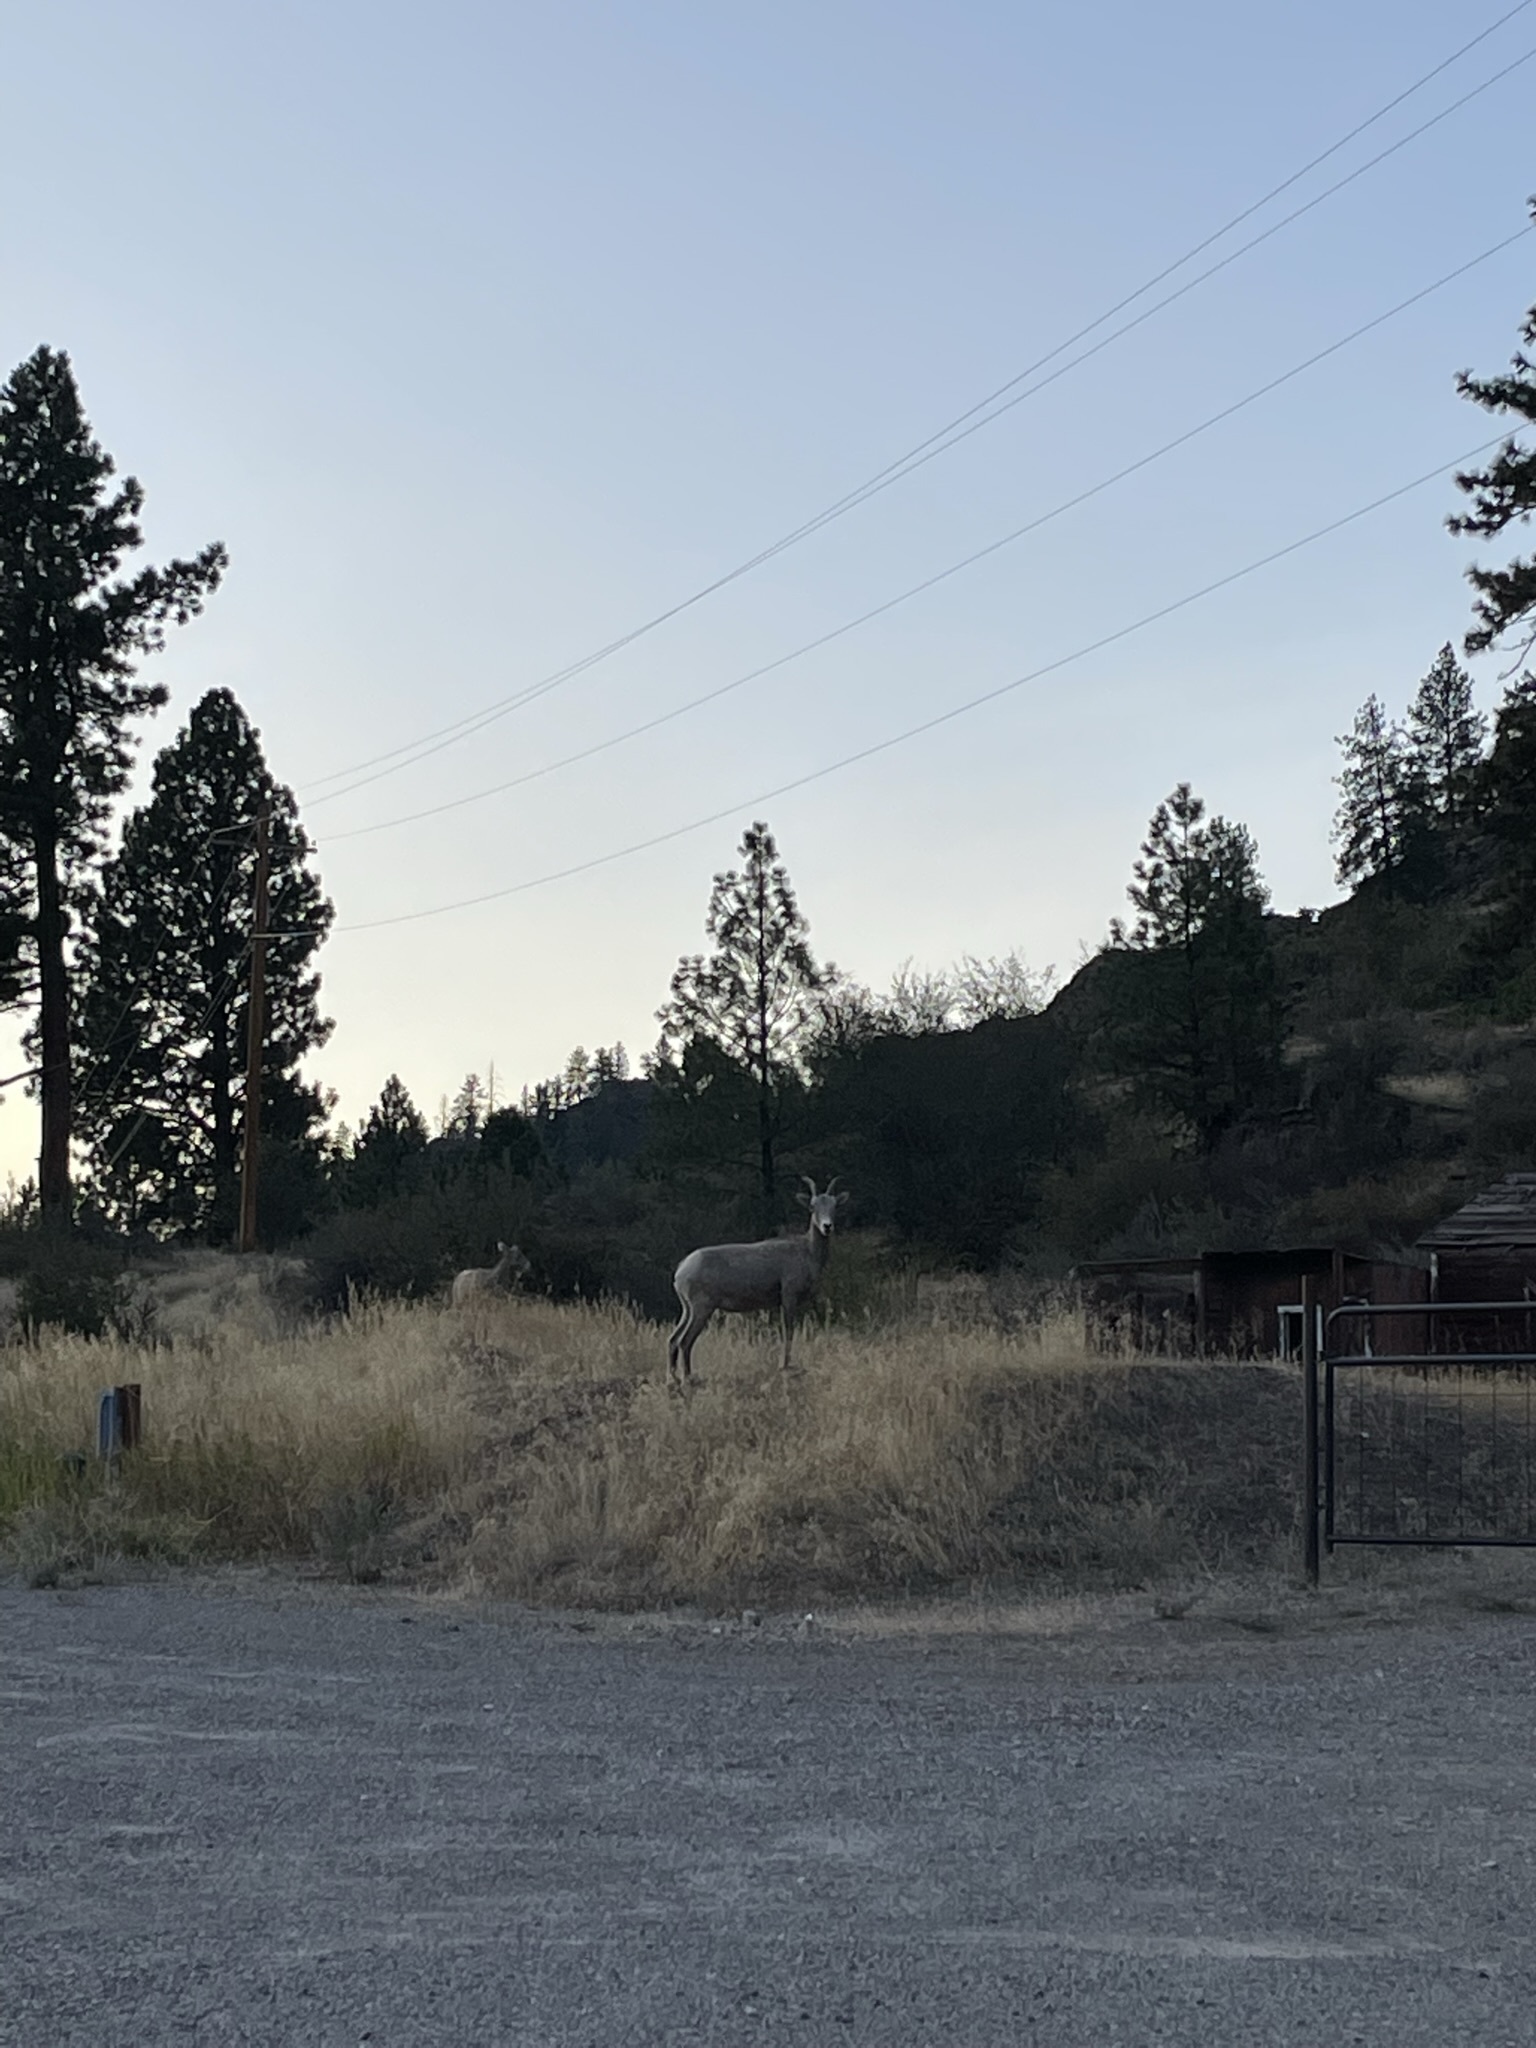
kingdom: Animalia
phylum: Chordata
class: Mammalia
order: Artiodactyla
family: Bovidae
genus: Ovis
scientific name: Ovis canadensis
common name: Bighorn sheep
